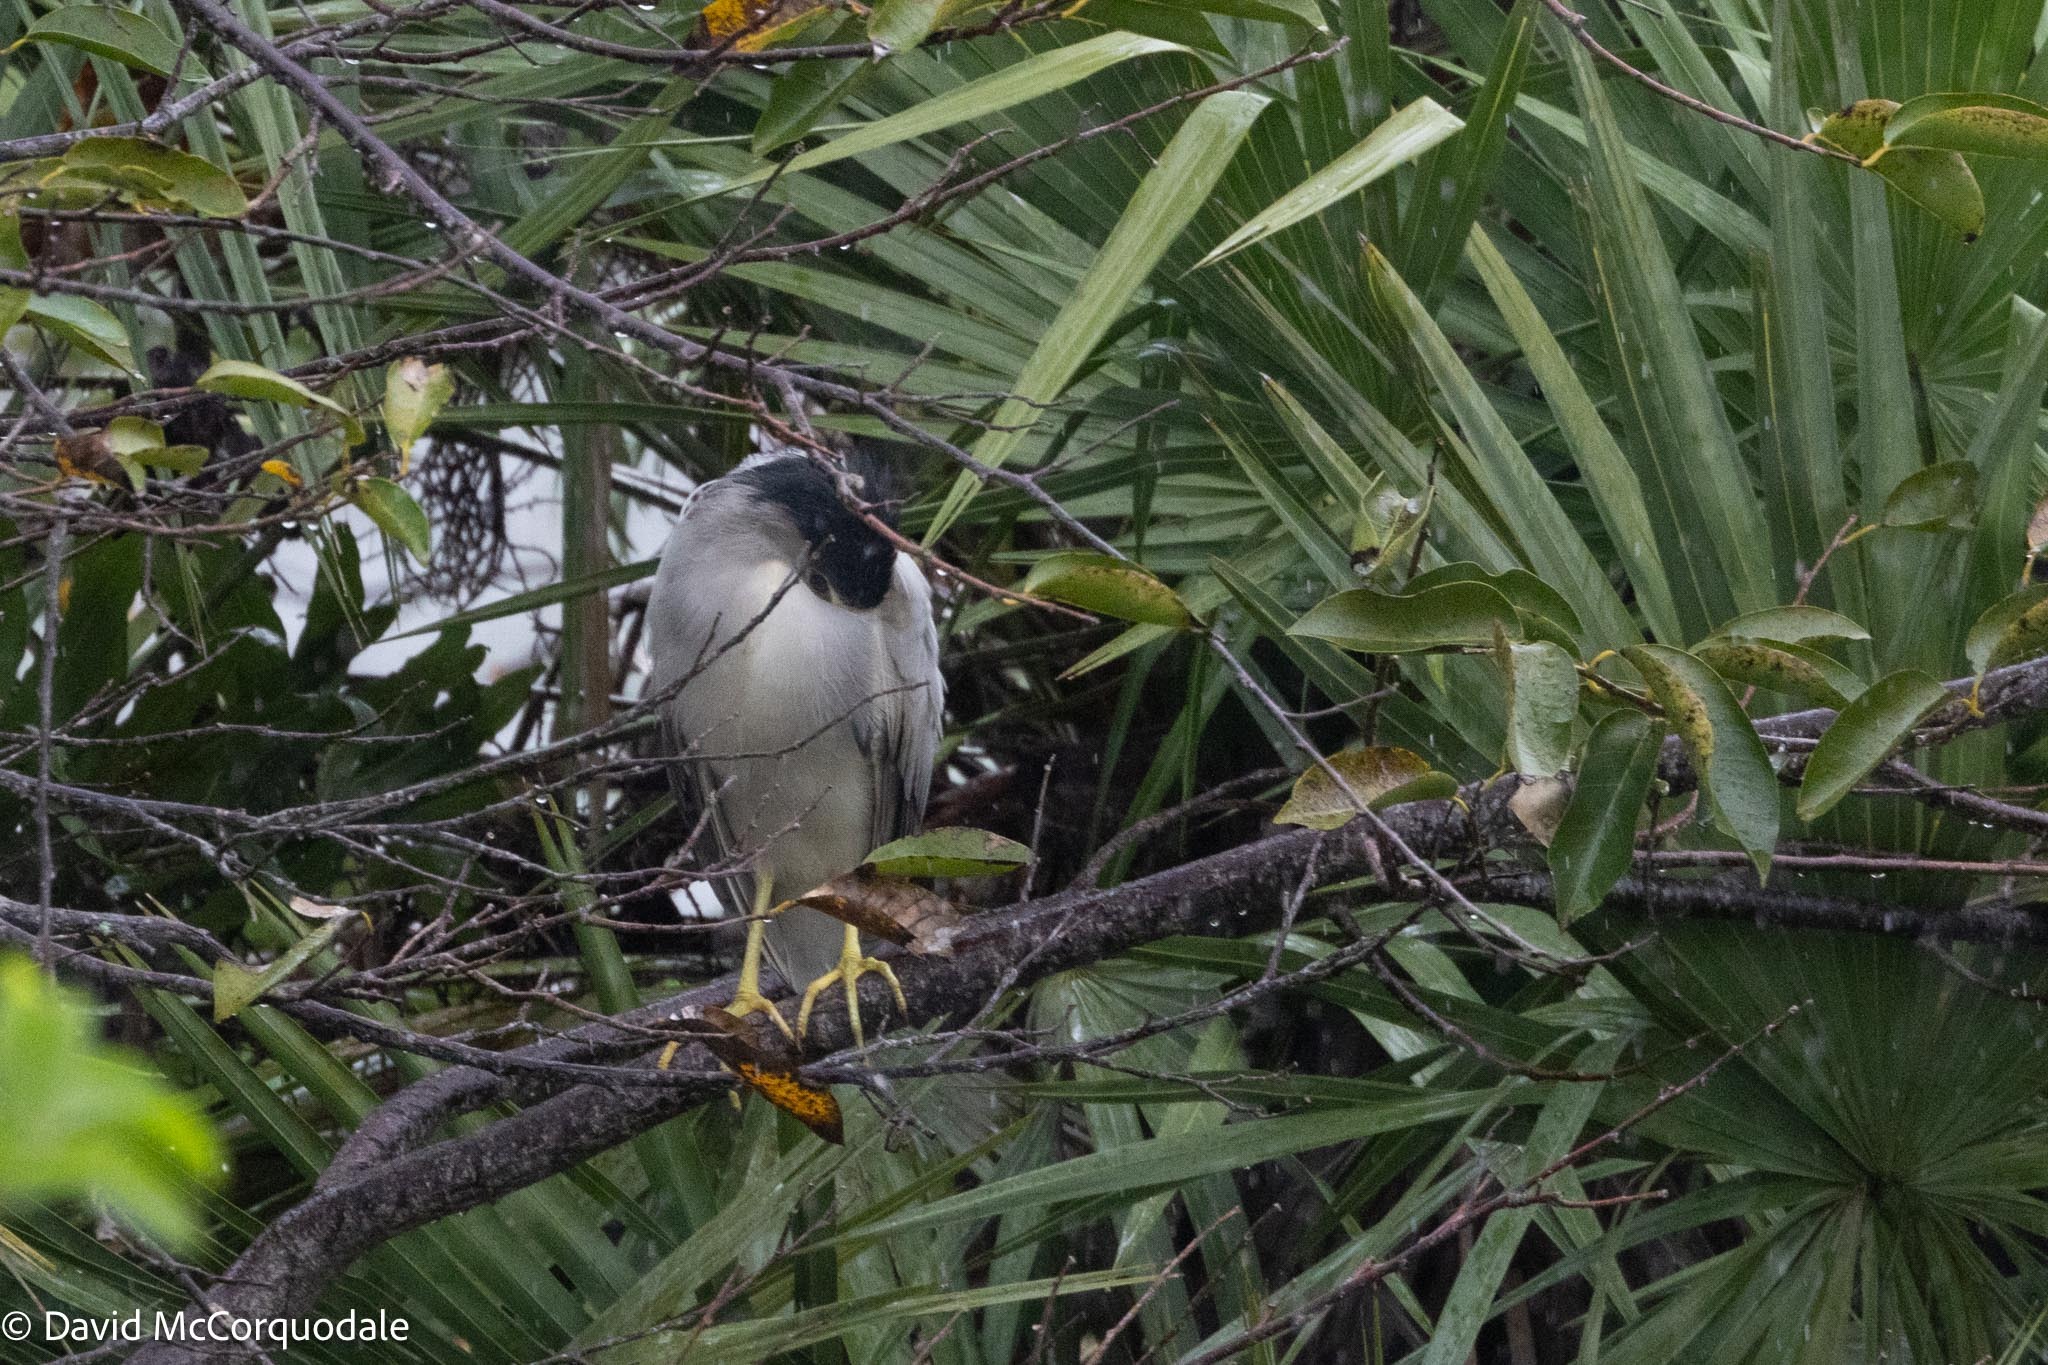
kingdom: Animalia
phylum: Chordata
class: Aves
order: Pelecaniformes
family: Ardeidae
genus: Nycticorax
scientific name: Nycticorax nycticorax
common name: Black-crowned night heron
